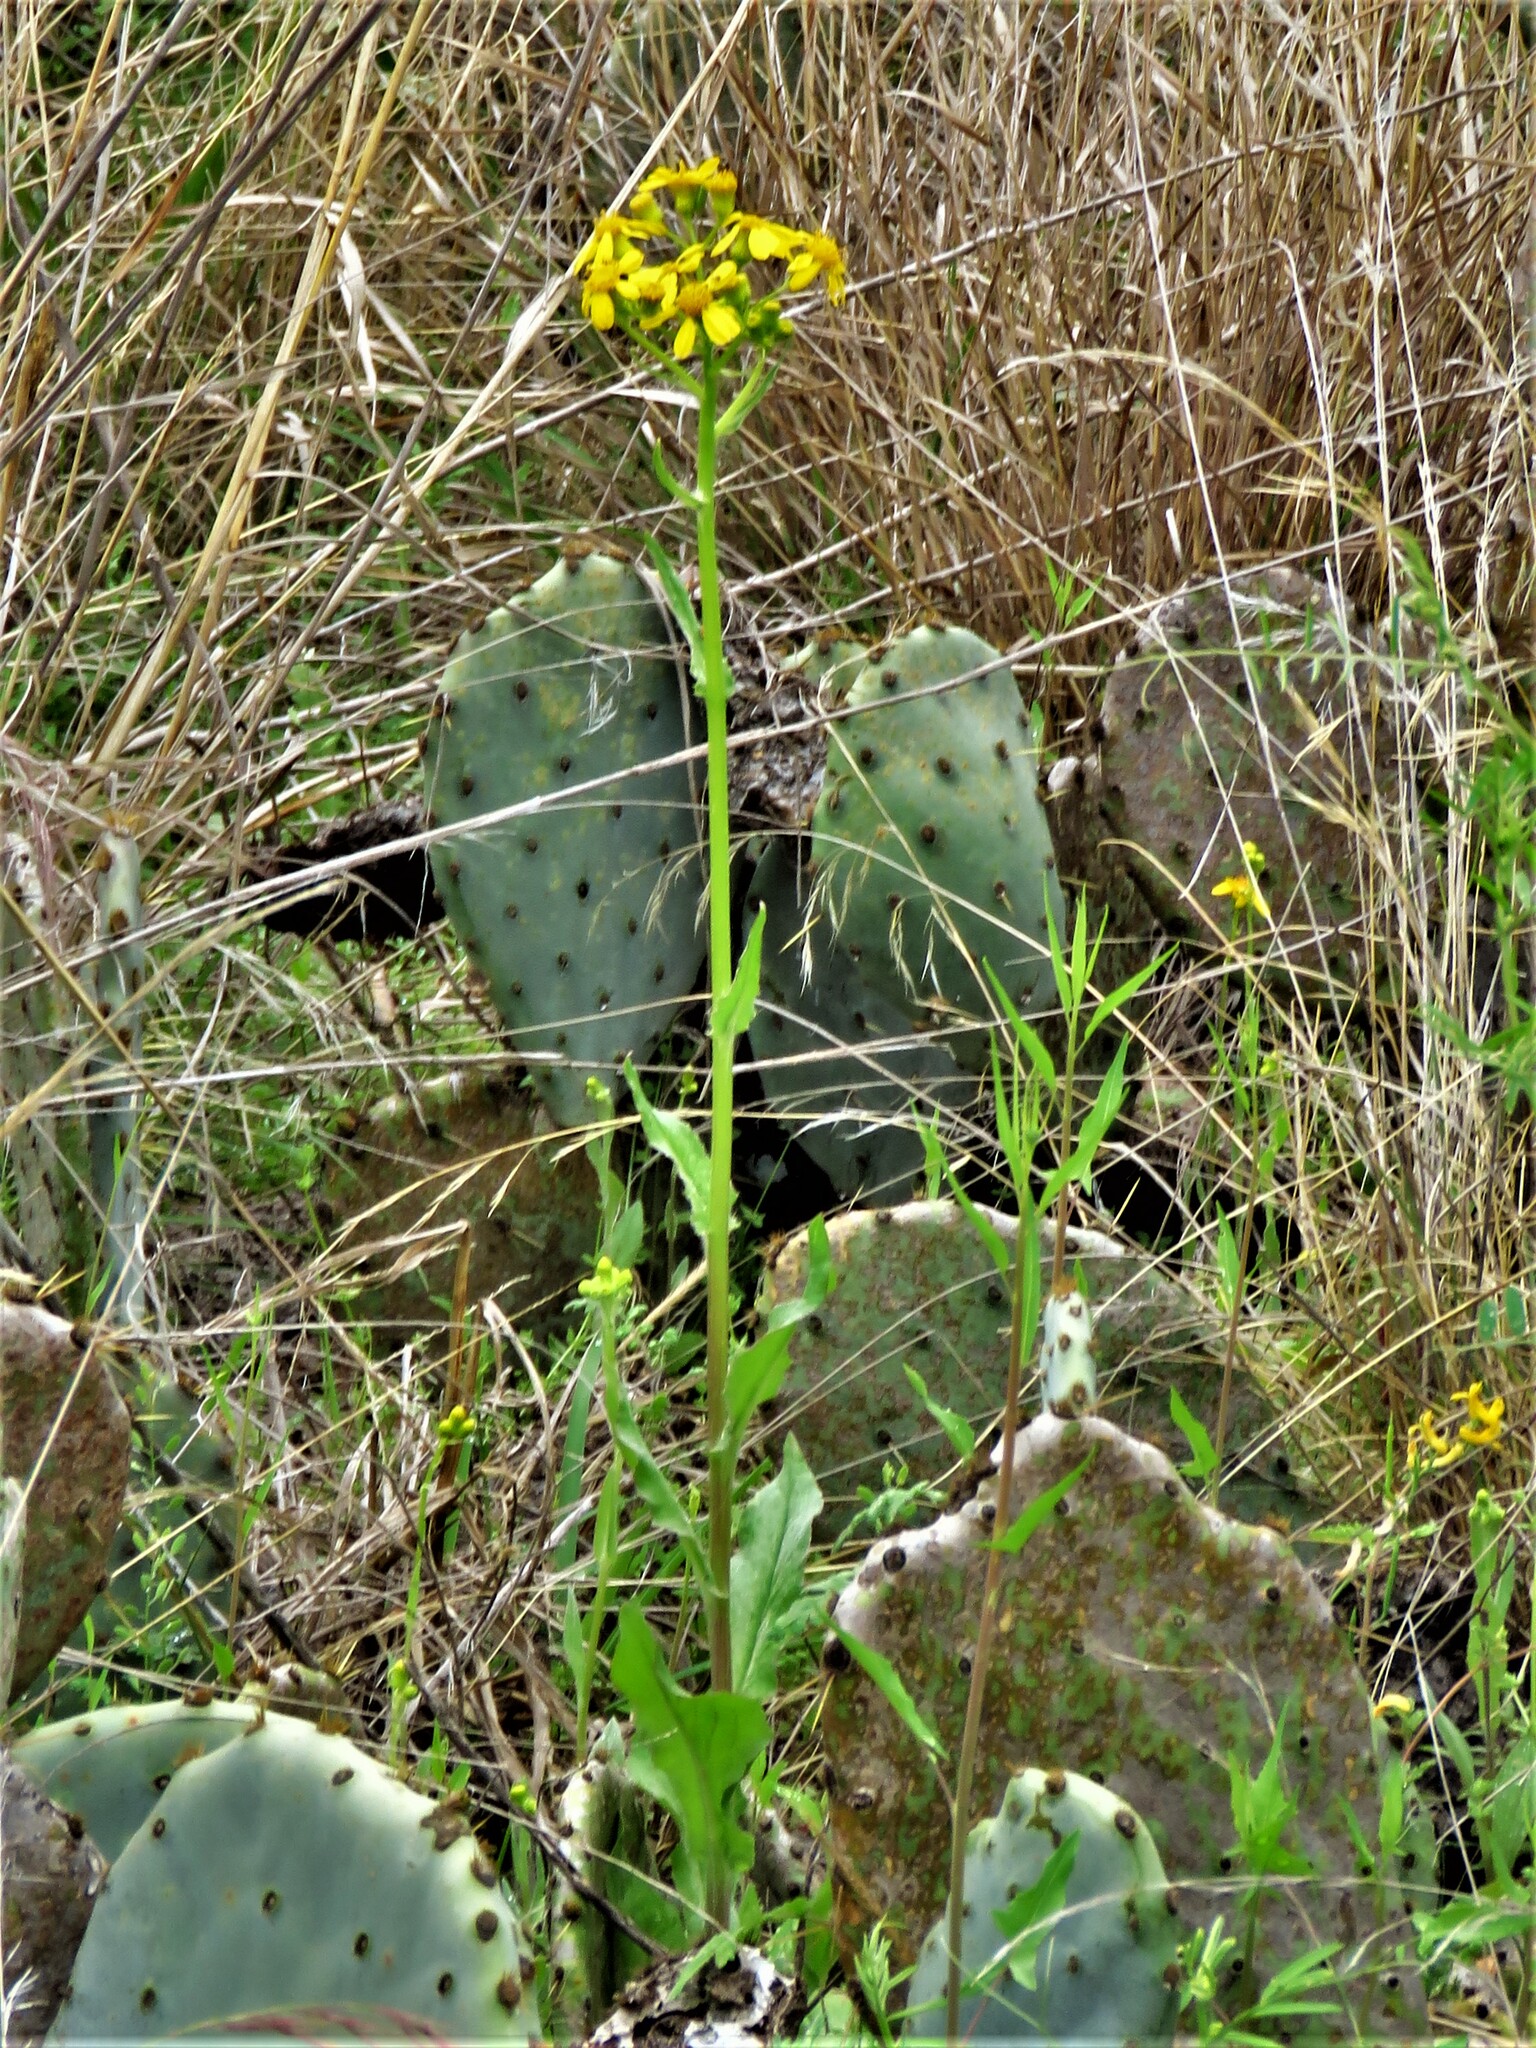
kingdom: Plantae
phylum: Tracheophyta
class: Magnoliopsida
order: Asterales
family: Asteraceae
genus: Senecio
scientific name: Senecio ampullaceus
